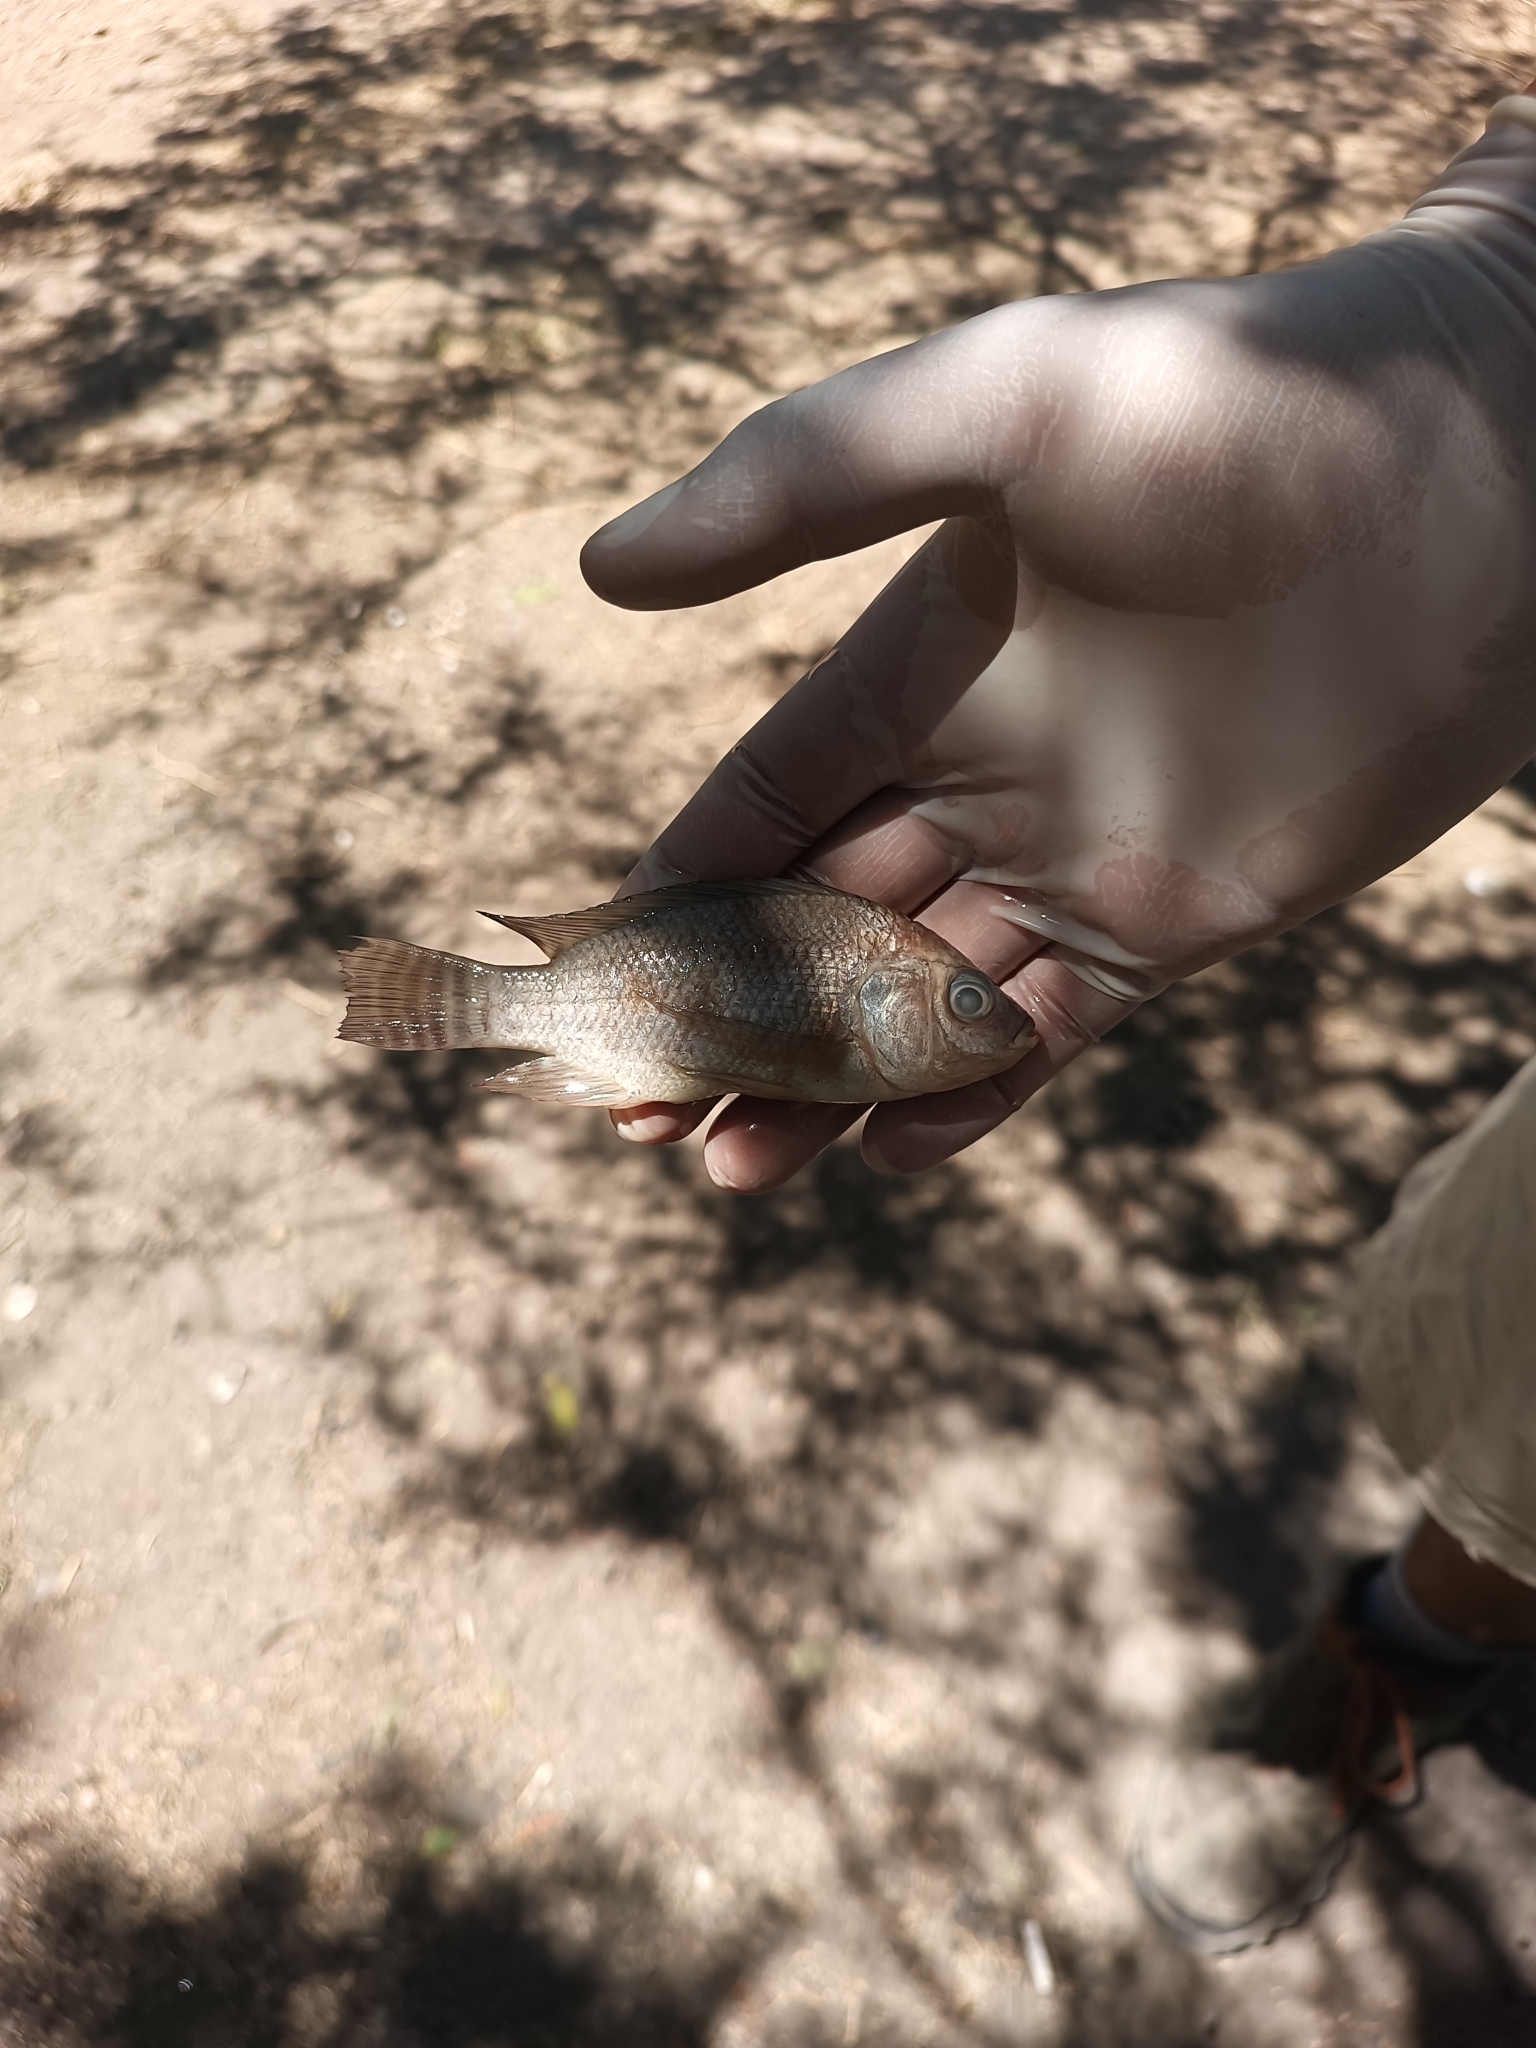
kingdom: Animalia
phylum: Chordata
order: Perciformes
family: Cichlidae
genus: Oreochromis
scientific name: Oreochromis niloticus
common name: Nile tilapia
